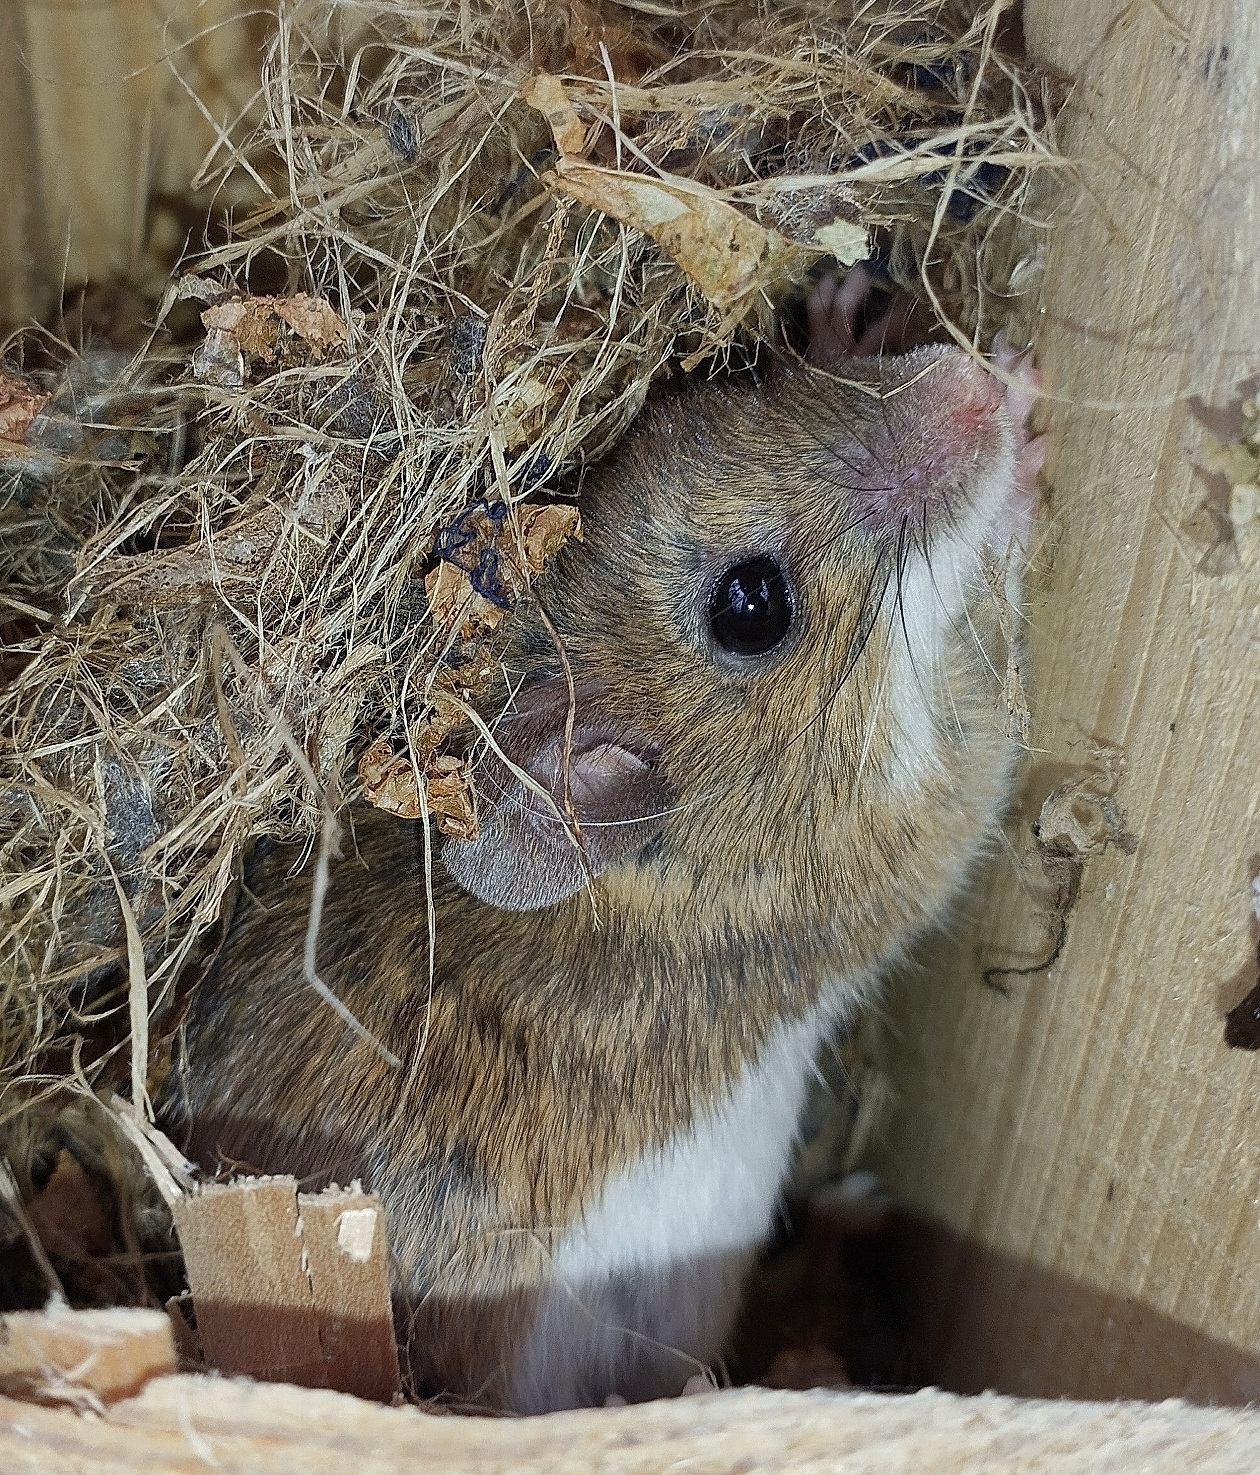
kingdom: Animalia
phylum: Chordata
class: Mammalia
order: Rodentia
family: Muridae
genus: Apodemus
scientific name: Apodemus flavicollis
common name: Yellow-necked field mouse
